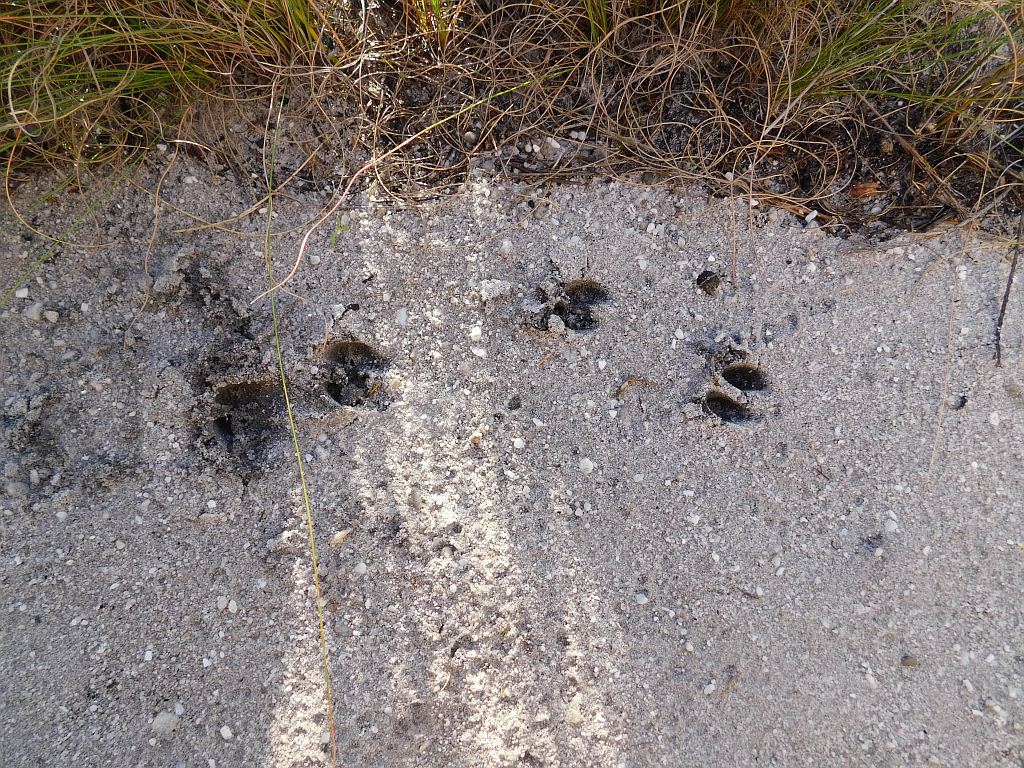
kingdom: Animalia
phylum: Chordata
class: Mammalia
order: Artiodactyla
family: Bovidae
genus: Oreotragus
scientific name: Oreotragus oreotragus
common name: Klipspringer
